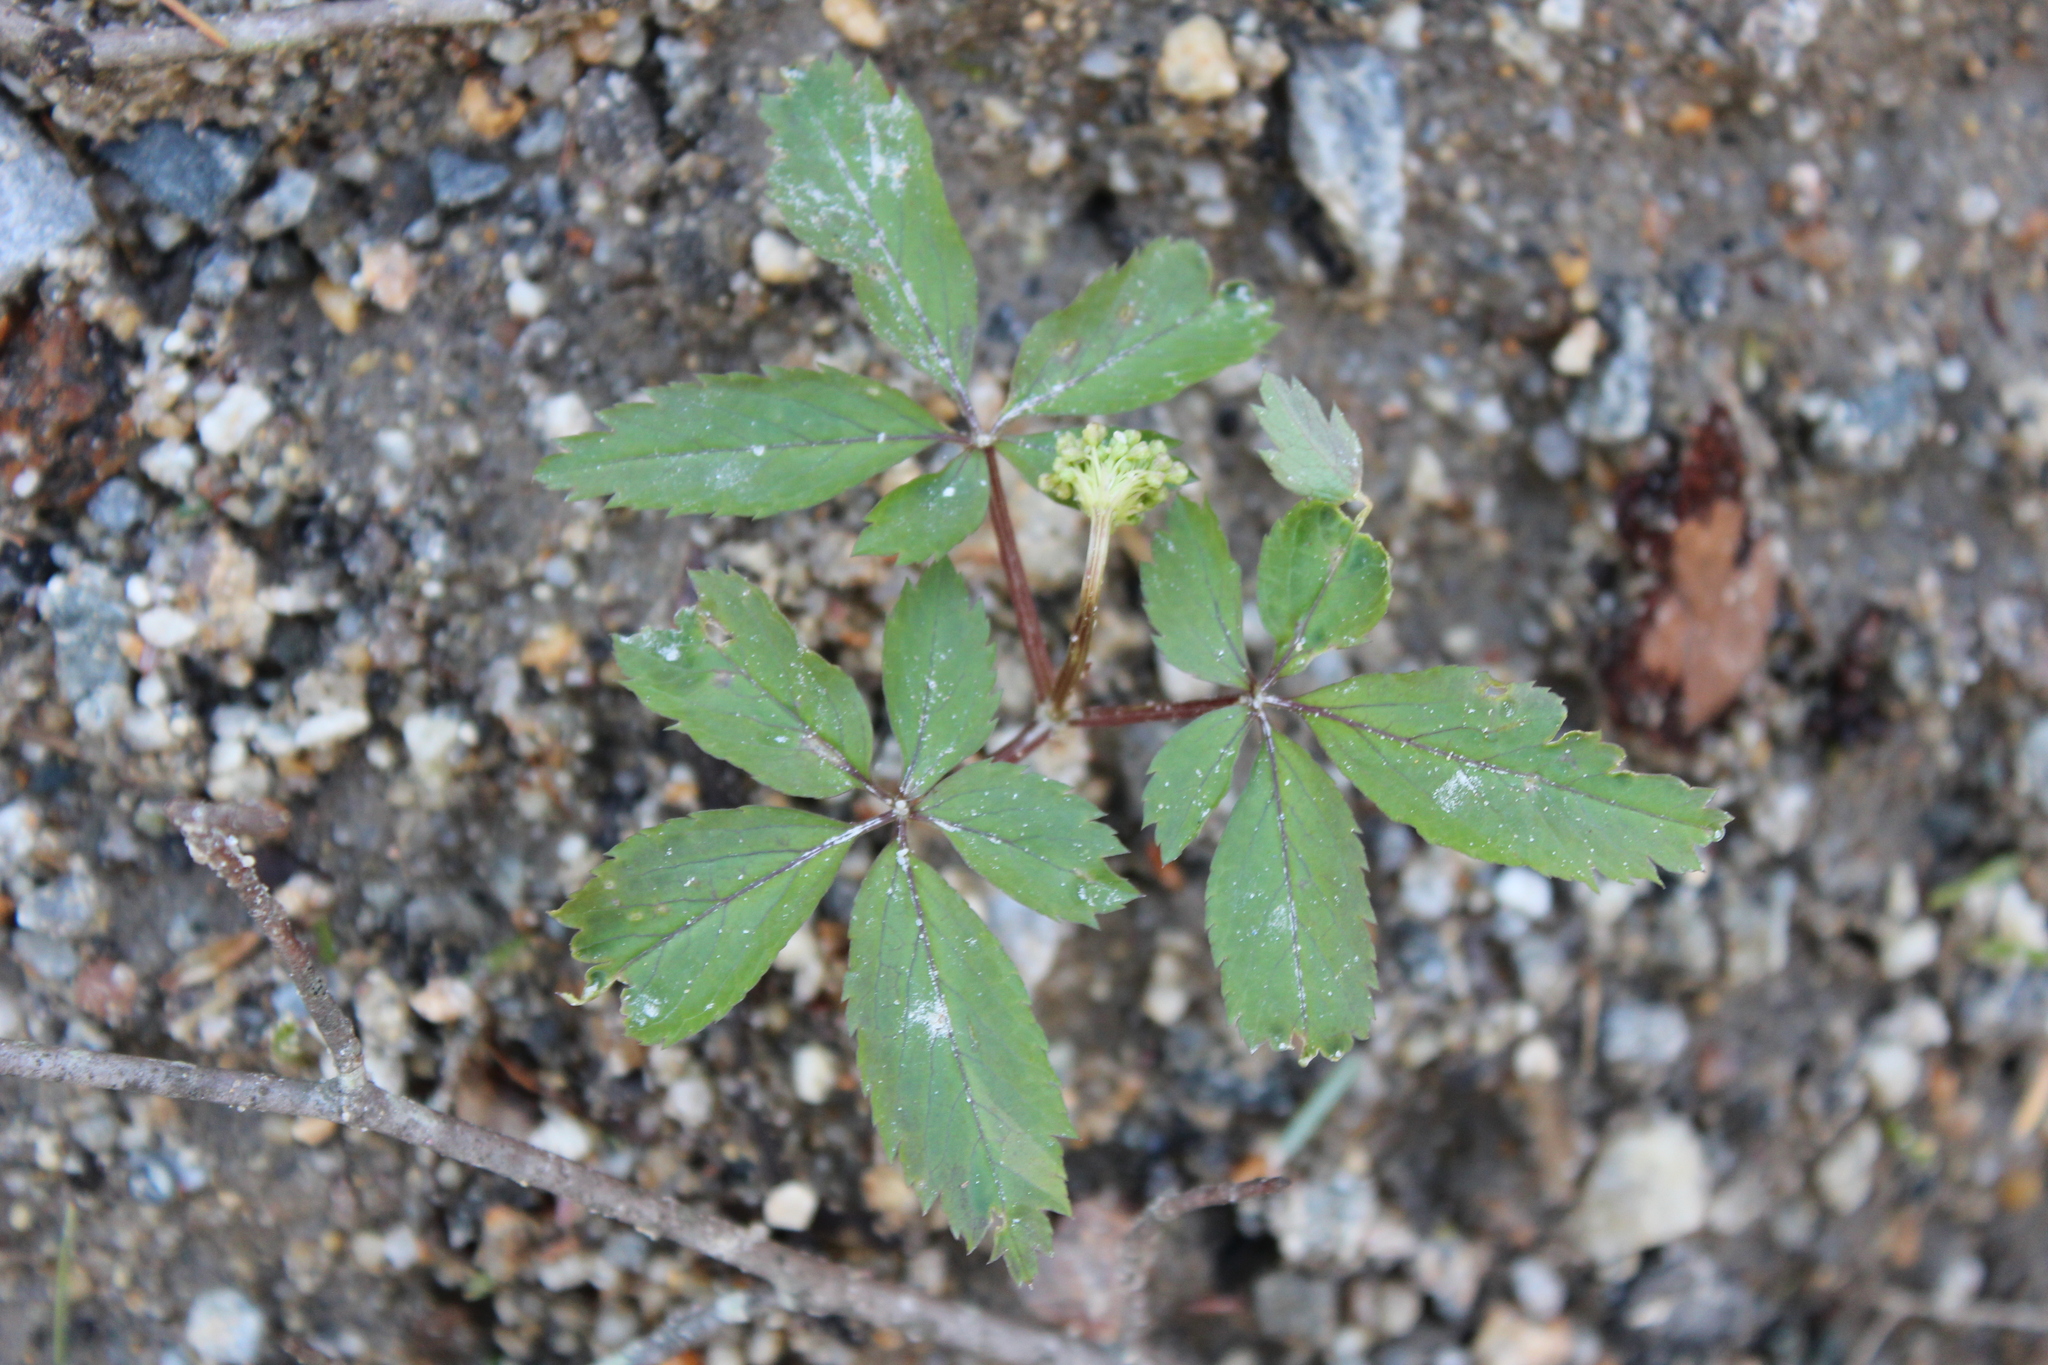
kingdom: Plantae
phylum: Tracheophyta
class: Magnoliopsida
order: Apiales
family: Araliaceae
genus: Panax
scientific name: Panax trifolius
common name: Dwarf ginseng
